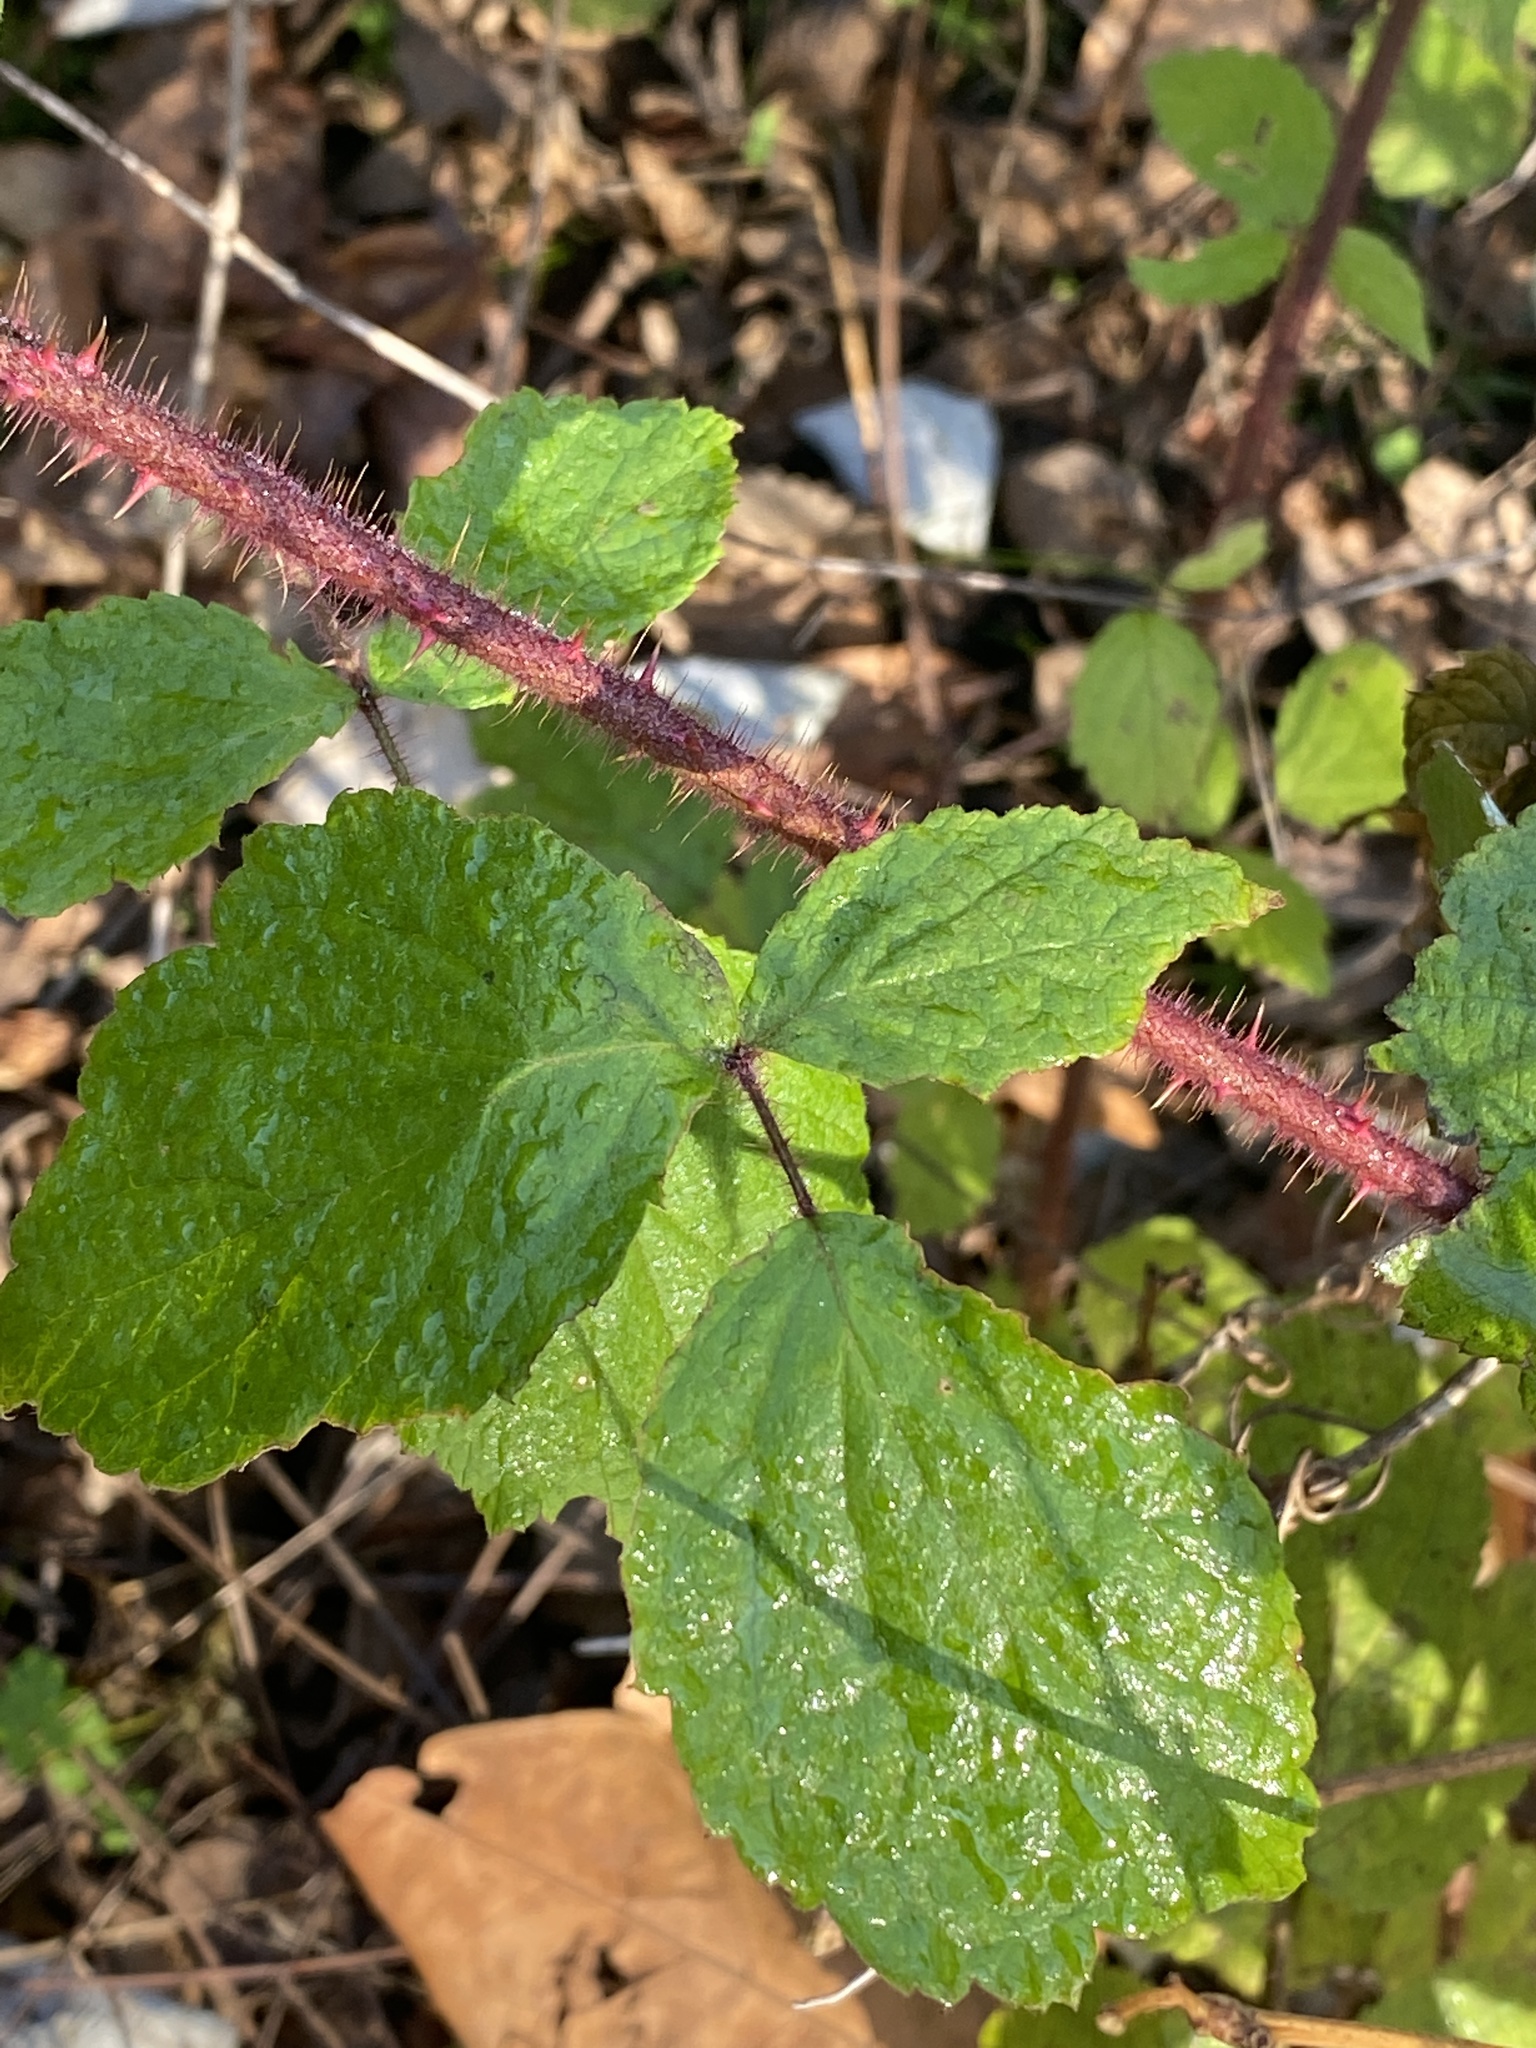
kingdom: Plantae
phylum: Tracheophyta
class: Magnoliopsida
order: Rosales
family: Rosaceae
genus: Rubus
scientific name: Rubus phoenicolasius
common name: Japanese wineberry
